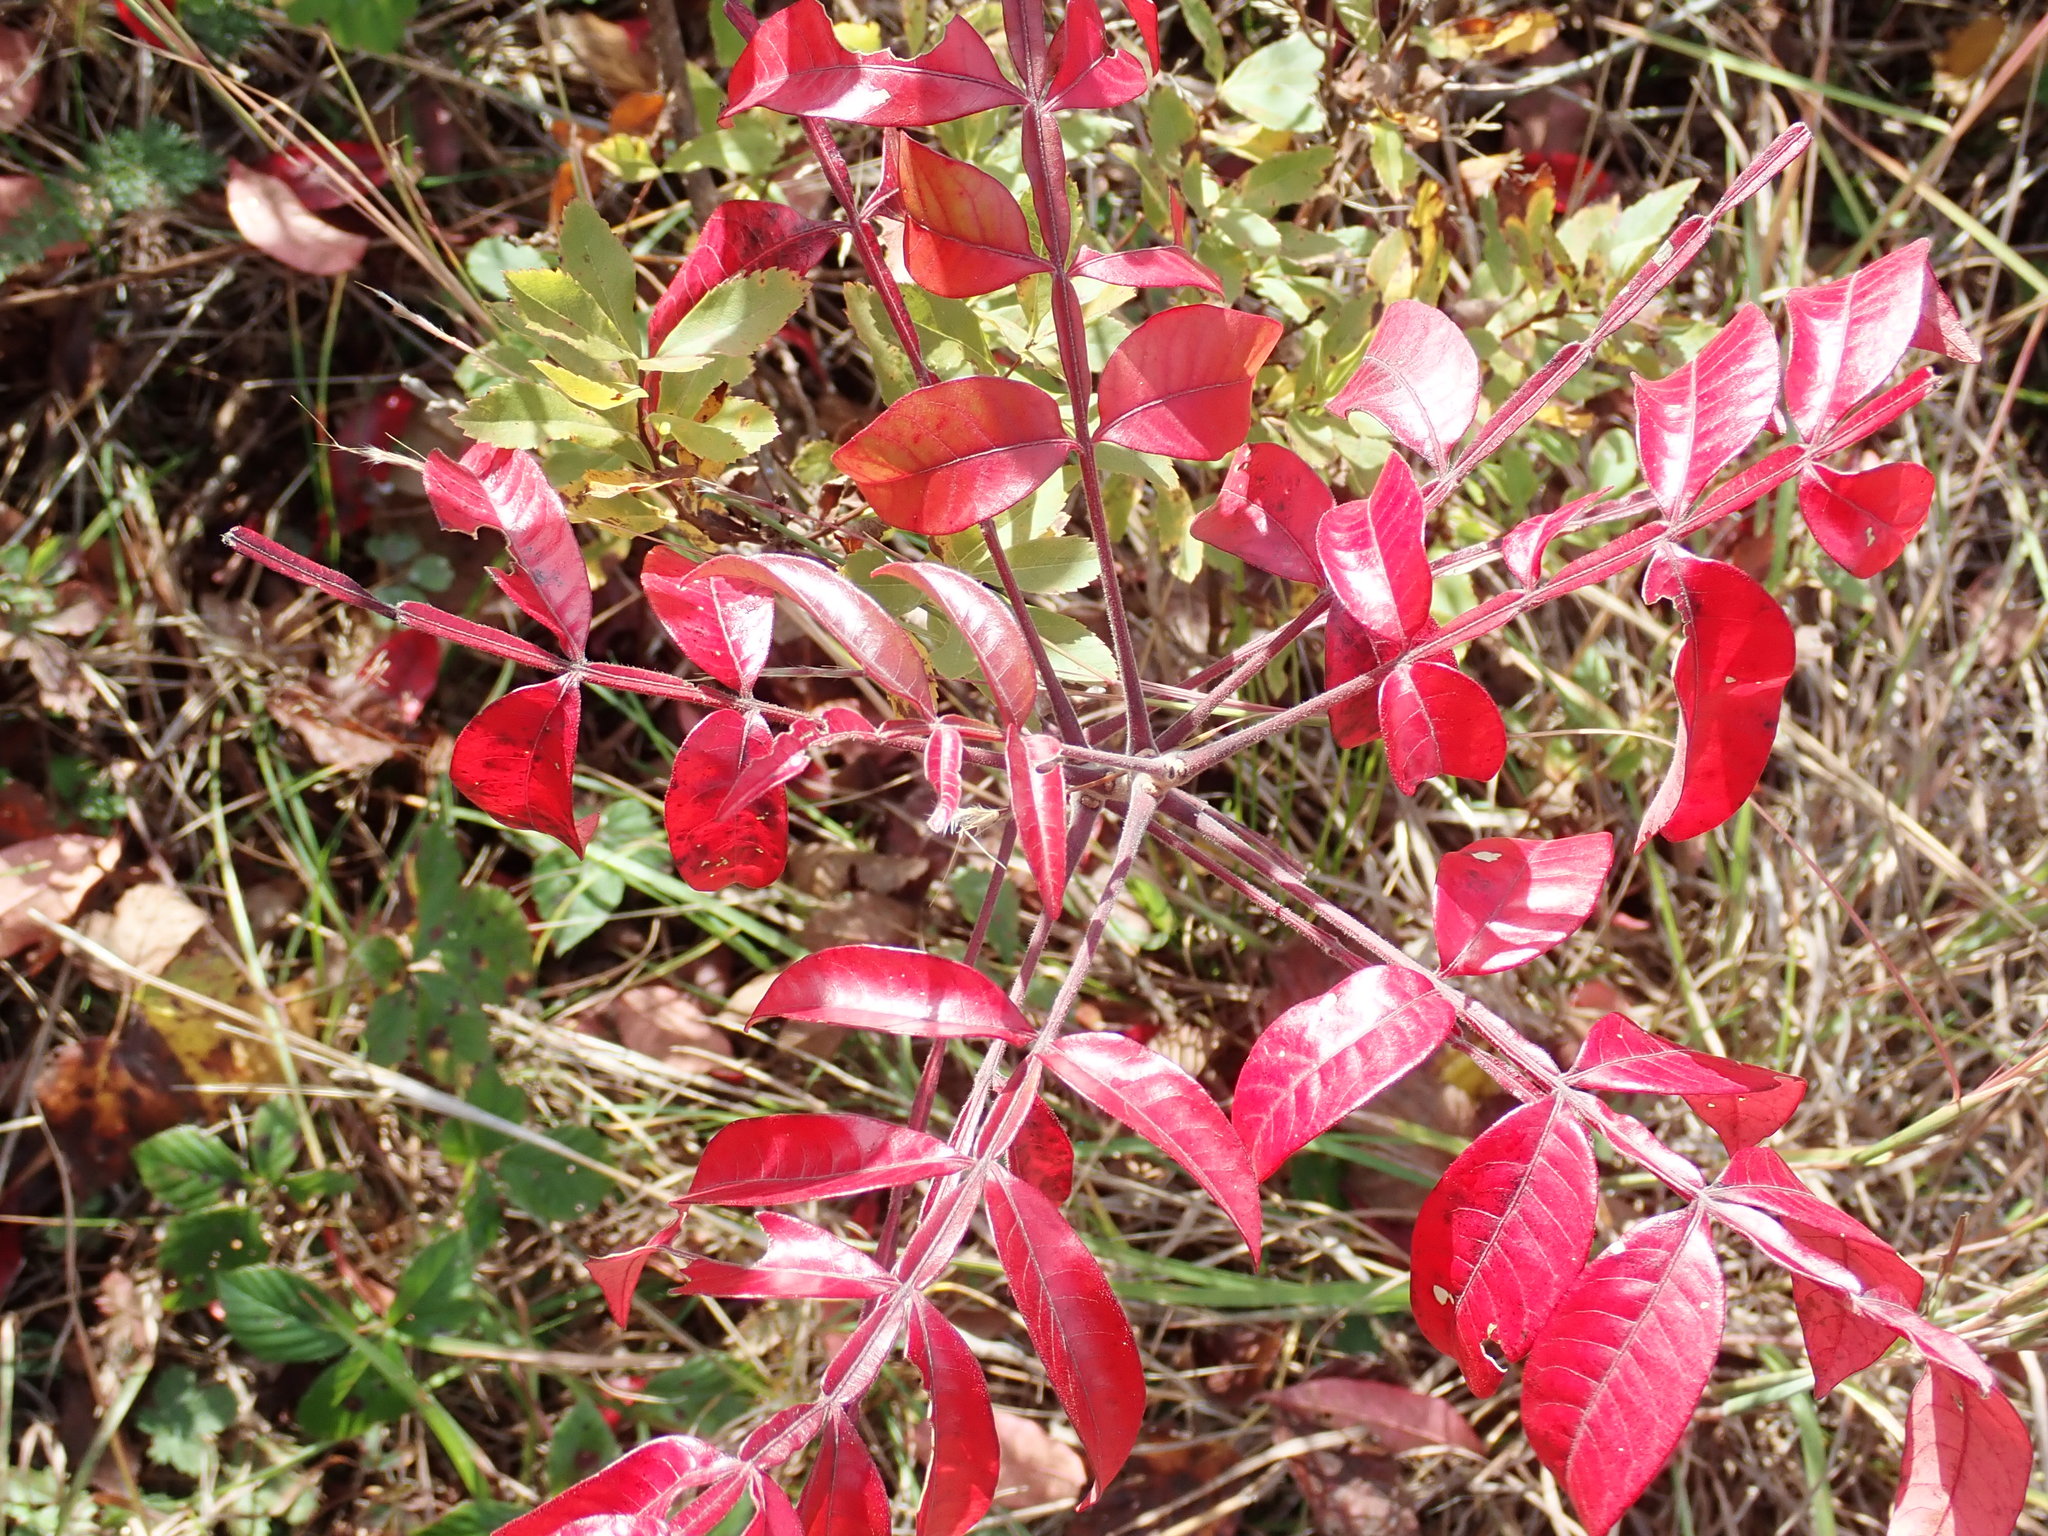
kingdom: Plantae
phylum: Tracheophyta
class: Magnoliopsida
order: Sapindales
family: Anacardiaceae
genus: Rhus
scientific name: Rhus copallina
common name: Shining sumac
